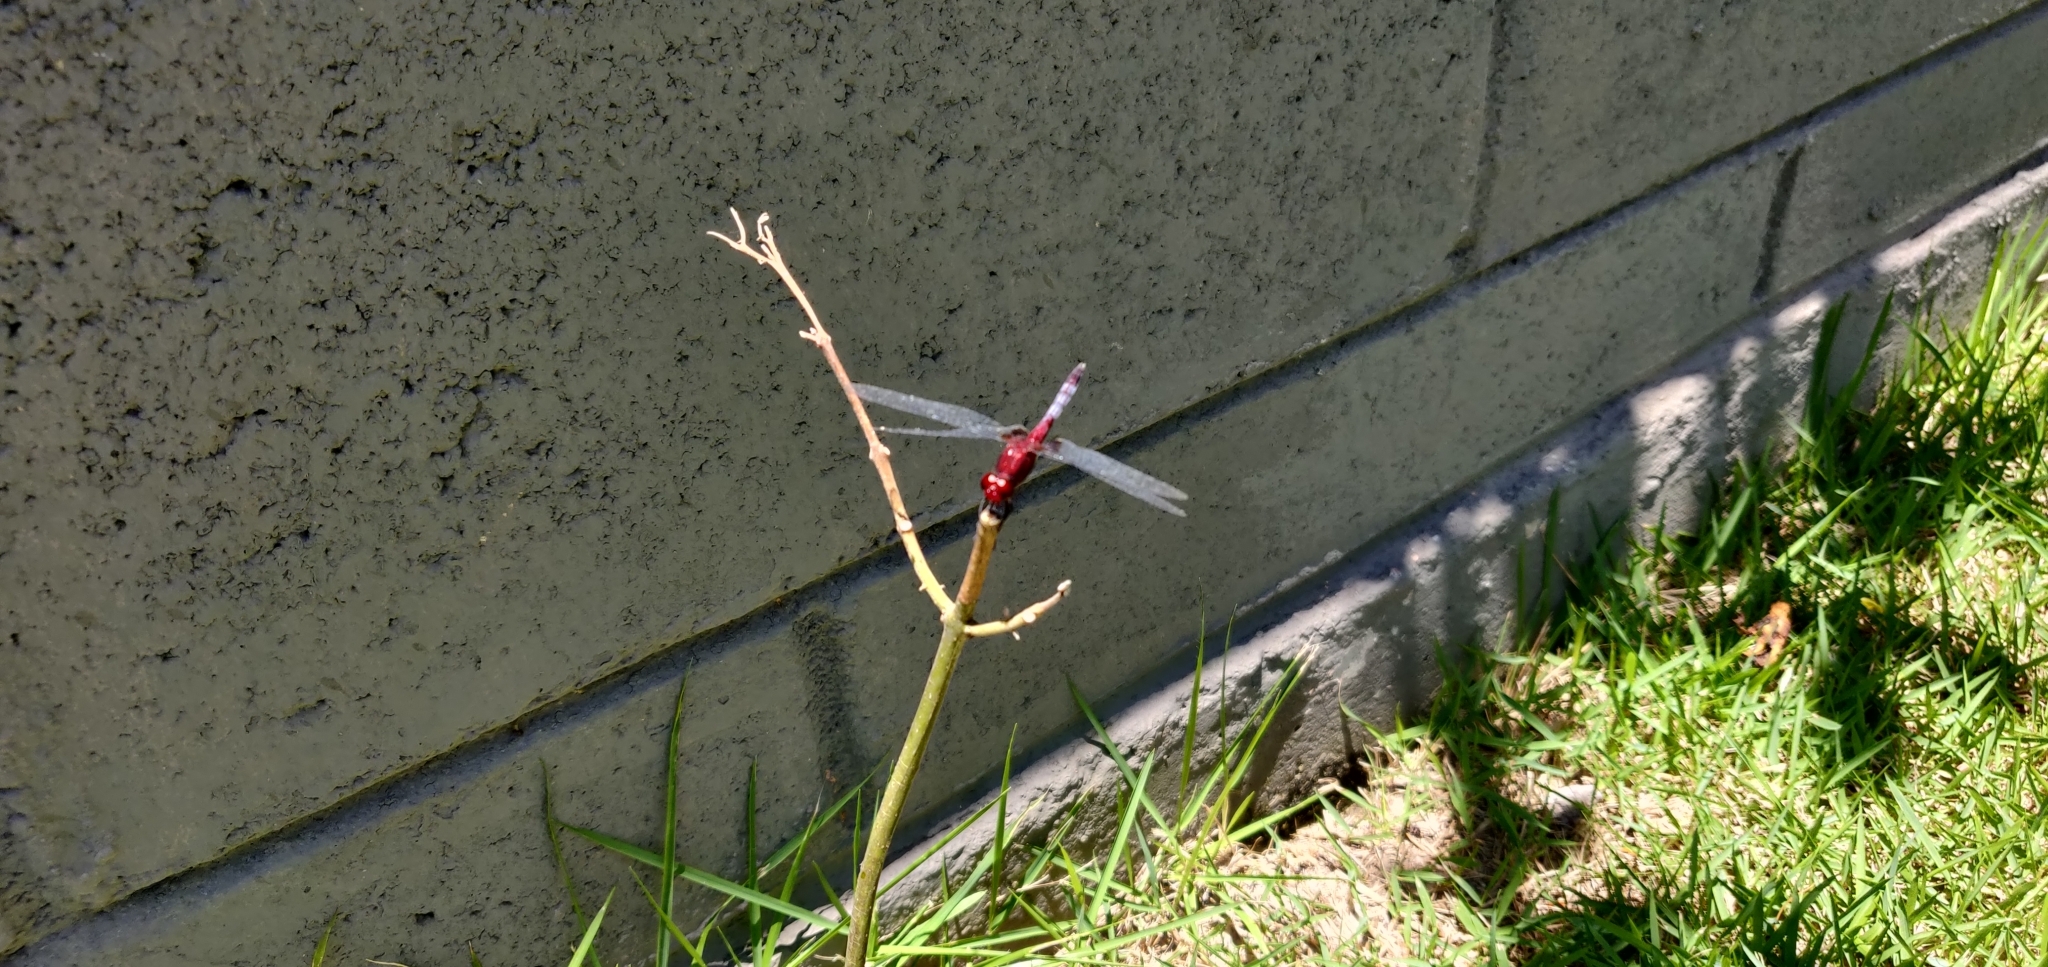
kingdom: Animalia
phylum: Arthropoda
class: Insecta
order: Odonata
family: Libellulidae
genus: Erythrodiplax
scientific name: Erythrodiplax fusca
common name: Red-faced dragonlet
